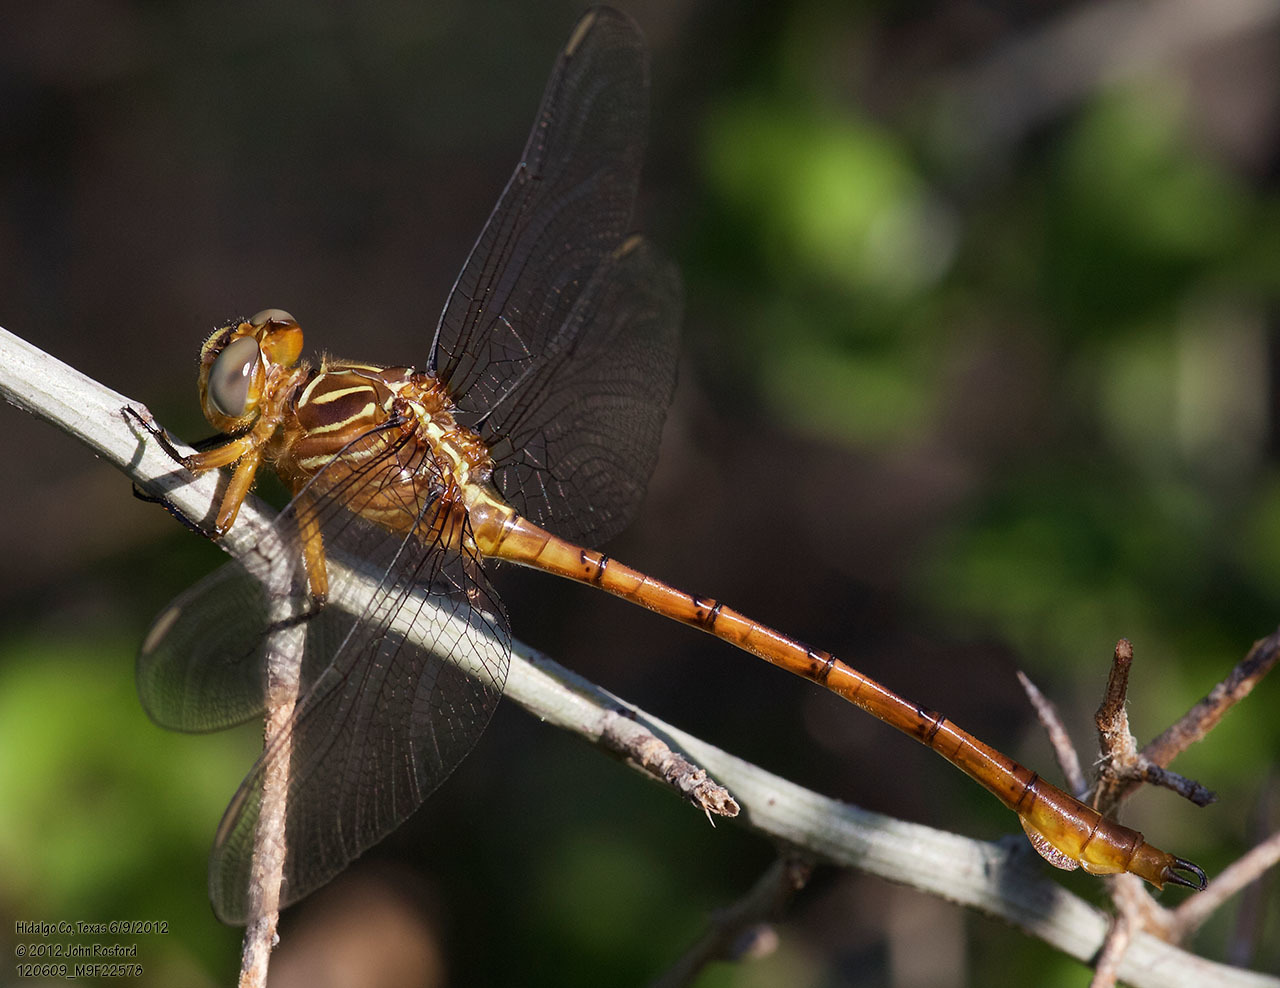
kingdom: Animalia
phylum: Arthropoda
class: Insecta
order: Odonata
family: Gomphidae
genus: Aphylla
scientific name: Aphylla protracta
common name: Narrow-striped forceptail
